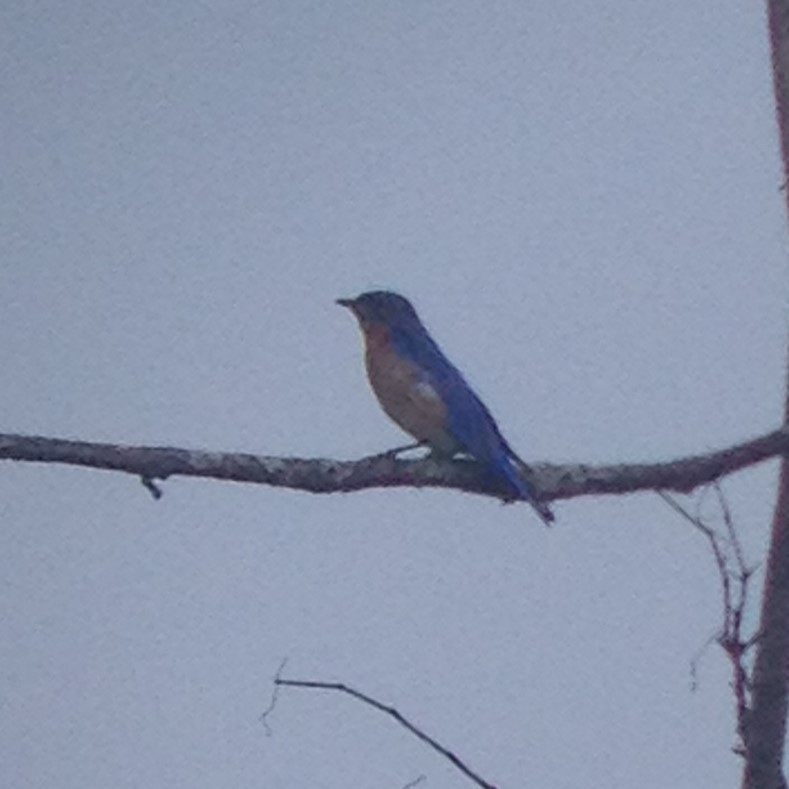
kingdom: Animalia
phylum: Chordata
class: Aves
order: Passeriformes
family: Turdidae
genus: Sialia
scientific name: Sialia sialis
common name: Eastern bluebird
